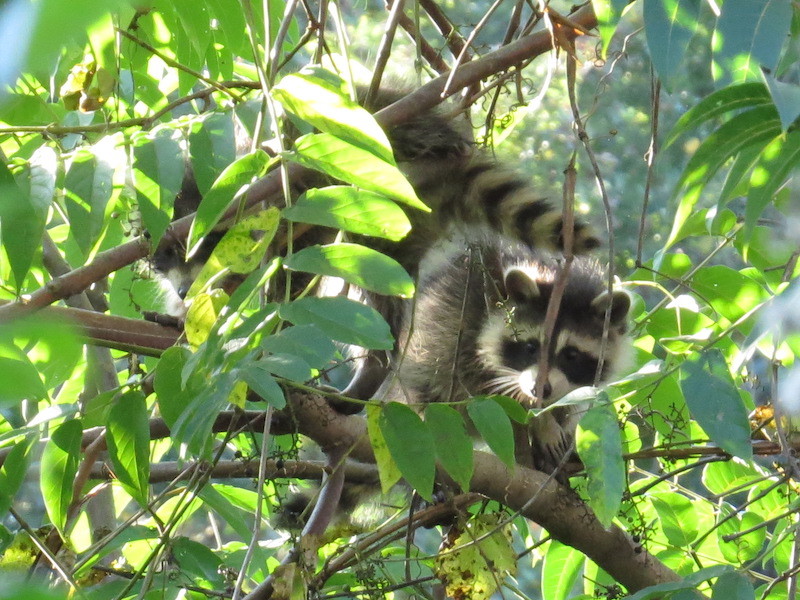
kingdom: Animalia
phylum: Chordata
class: Mammalia
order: Carnivora
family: Procyonidae
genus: Procyon
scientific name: Procyon lotor
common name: Raccoon
